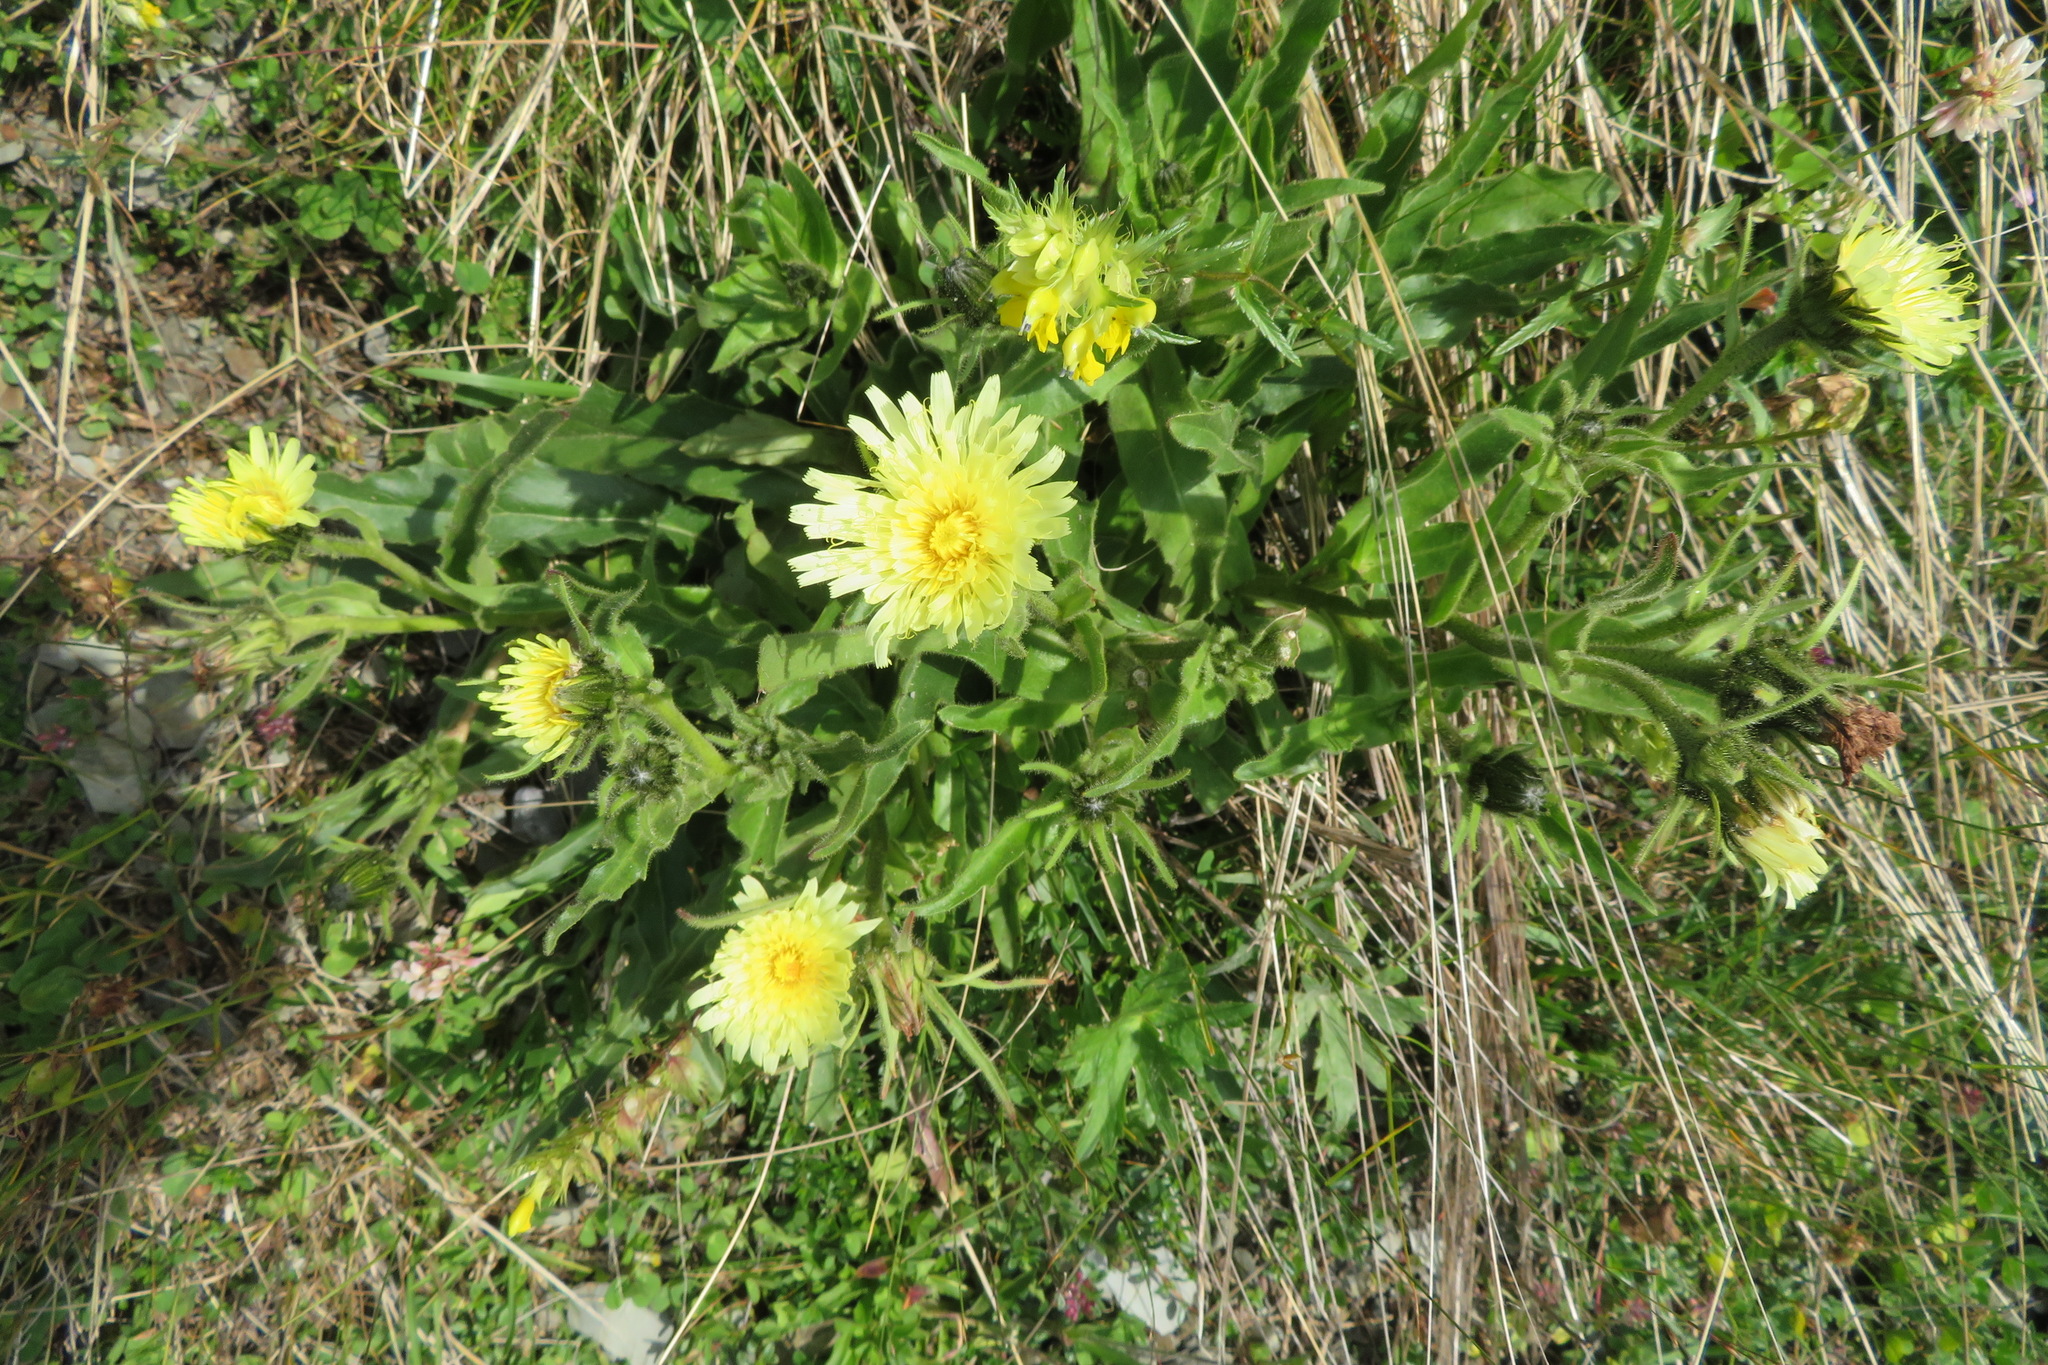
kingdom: Plantae
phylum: Tracheophyta
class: Magnoliopsida
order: Asterales
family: Asteraceae
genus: Schlagintweitia
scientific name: Schlagintweitia intybacea
